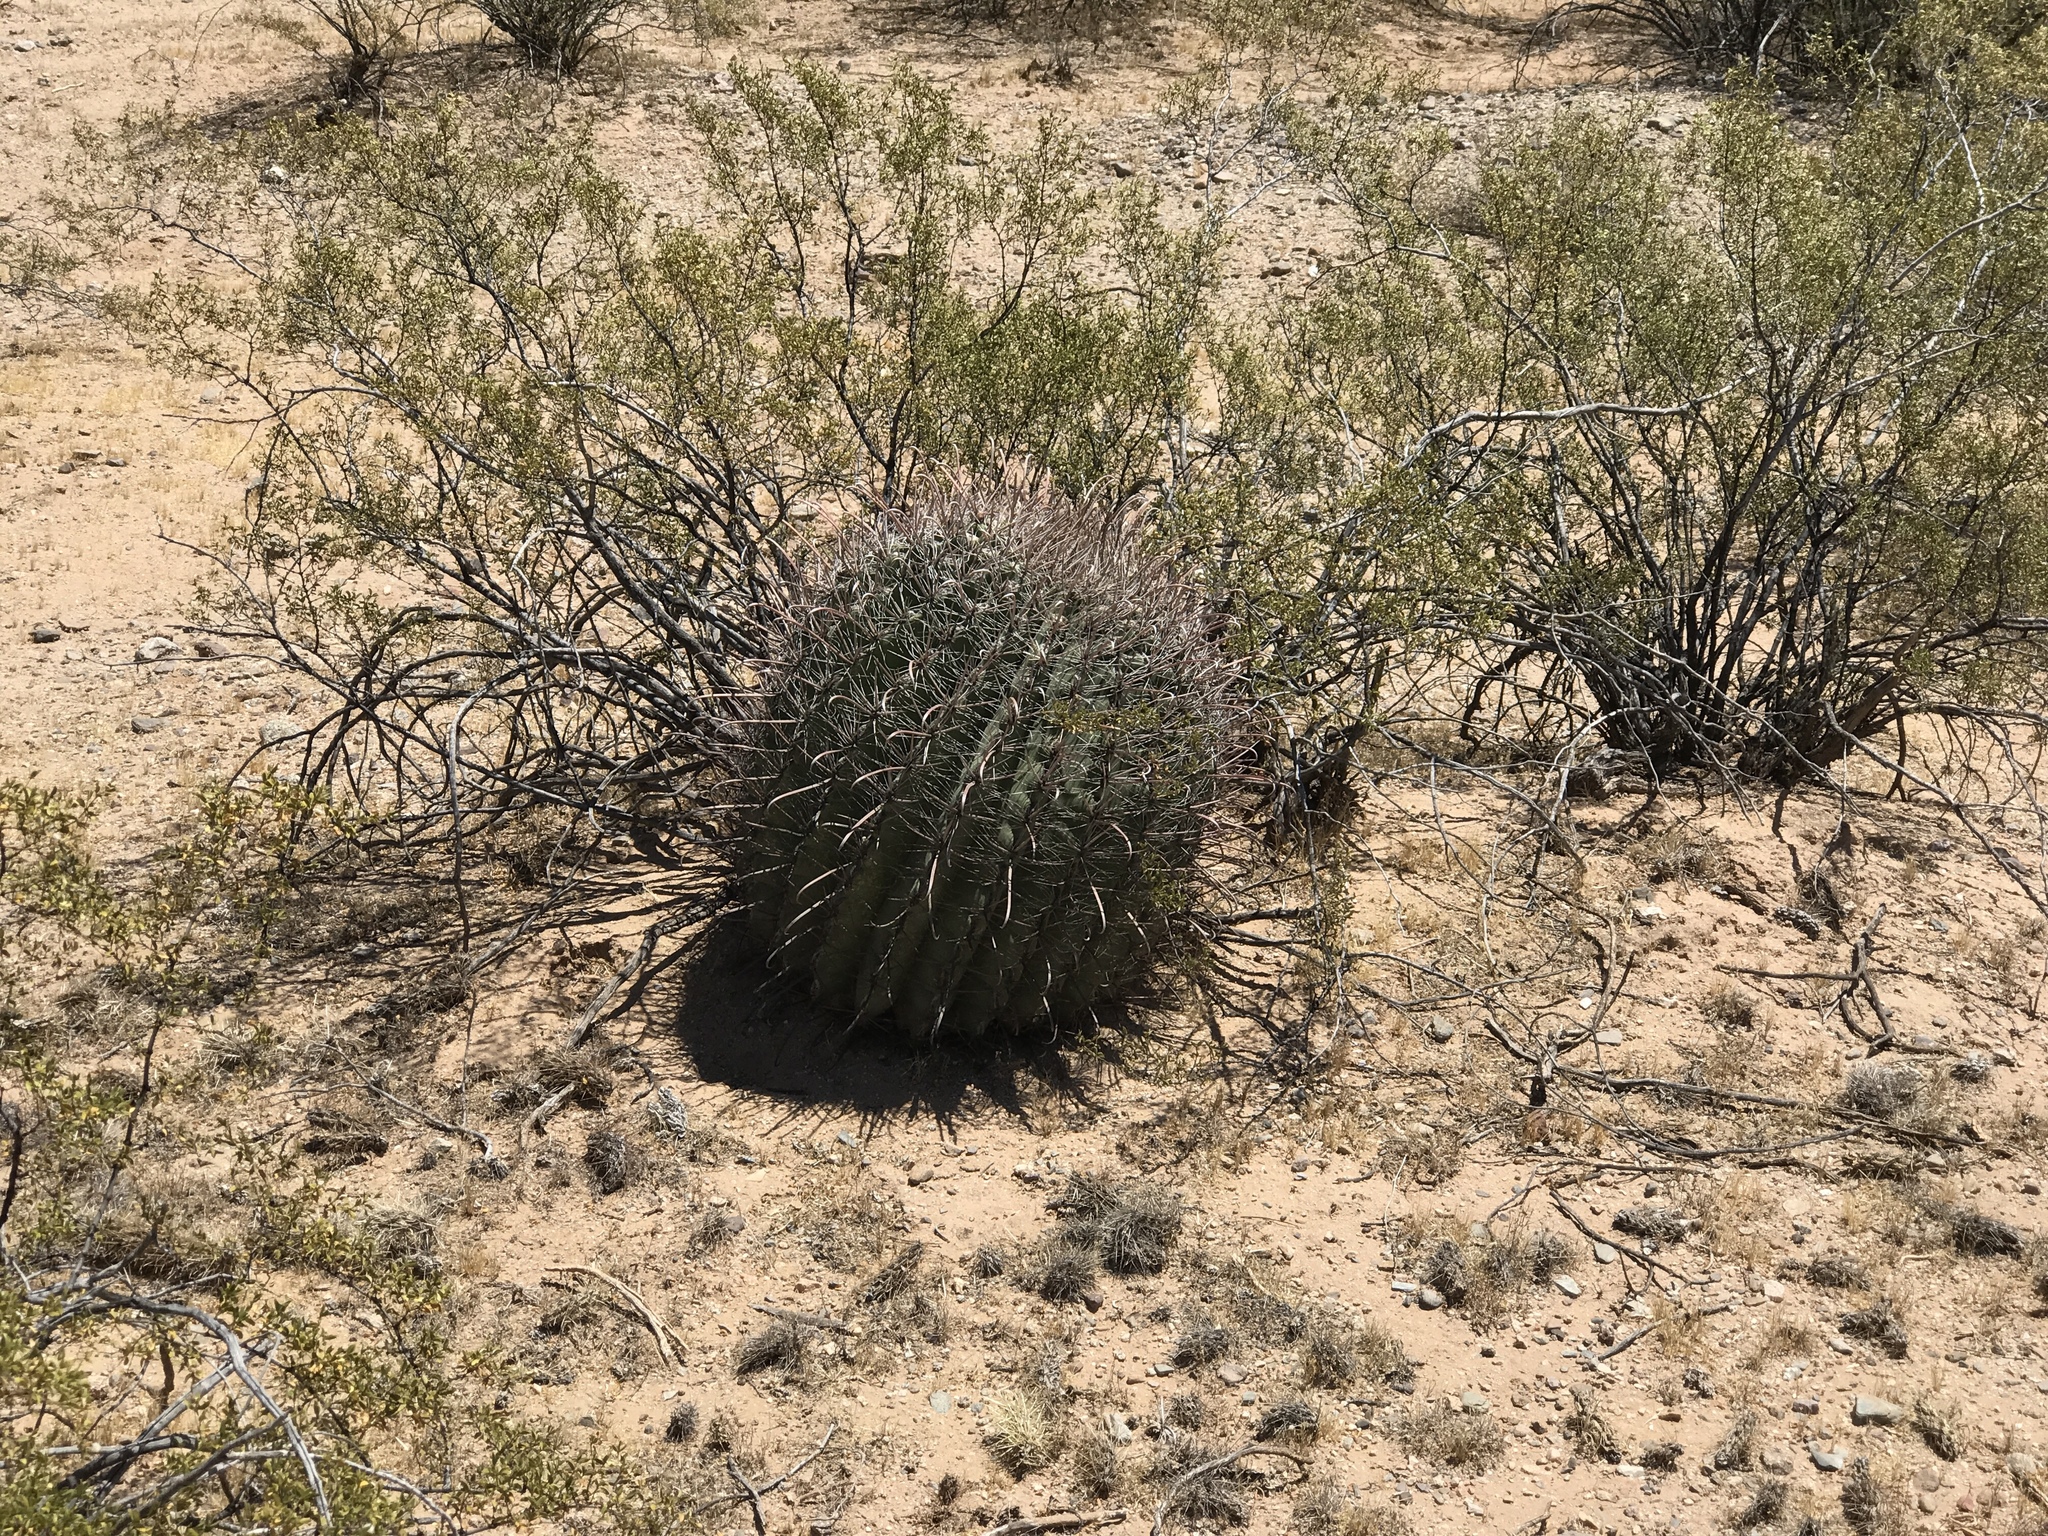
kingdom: Plantae
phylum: Tracheophyta
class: Magnoliopsida
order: Caryophyllales
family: Cactaceae
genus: Ferocactus
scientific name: Ferocactus wislizeni
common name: Candy barrel cactus
